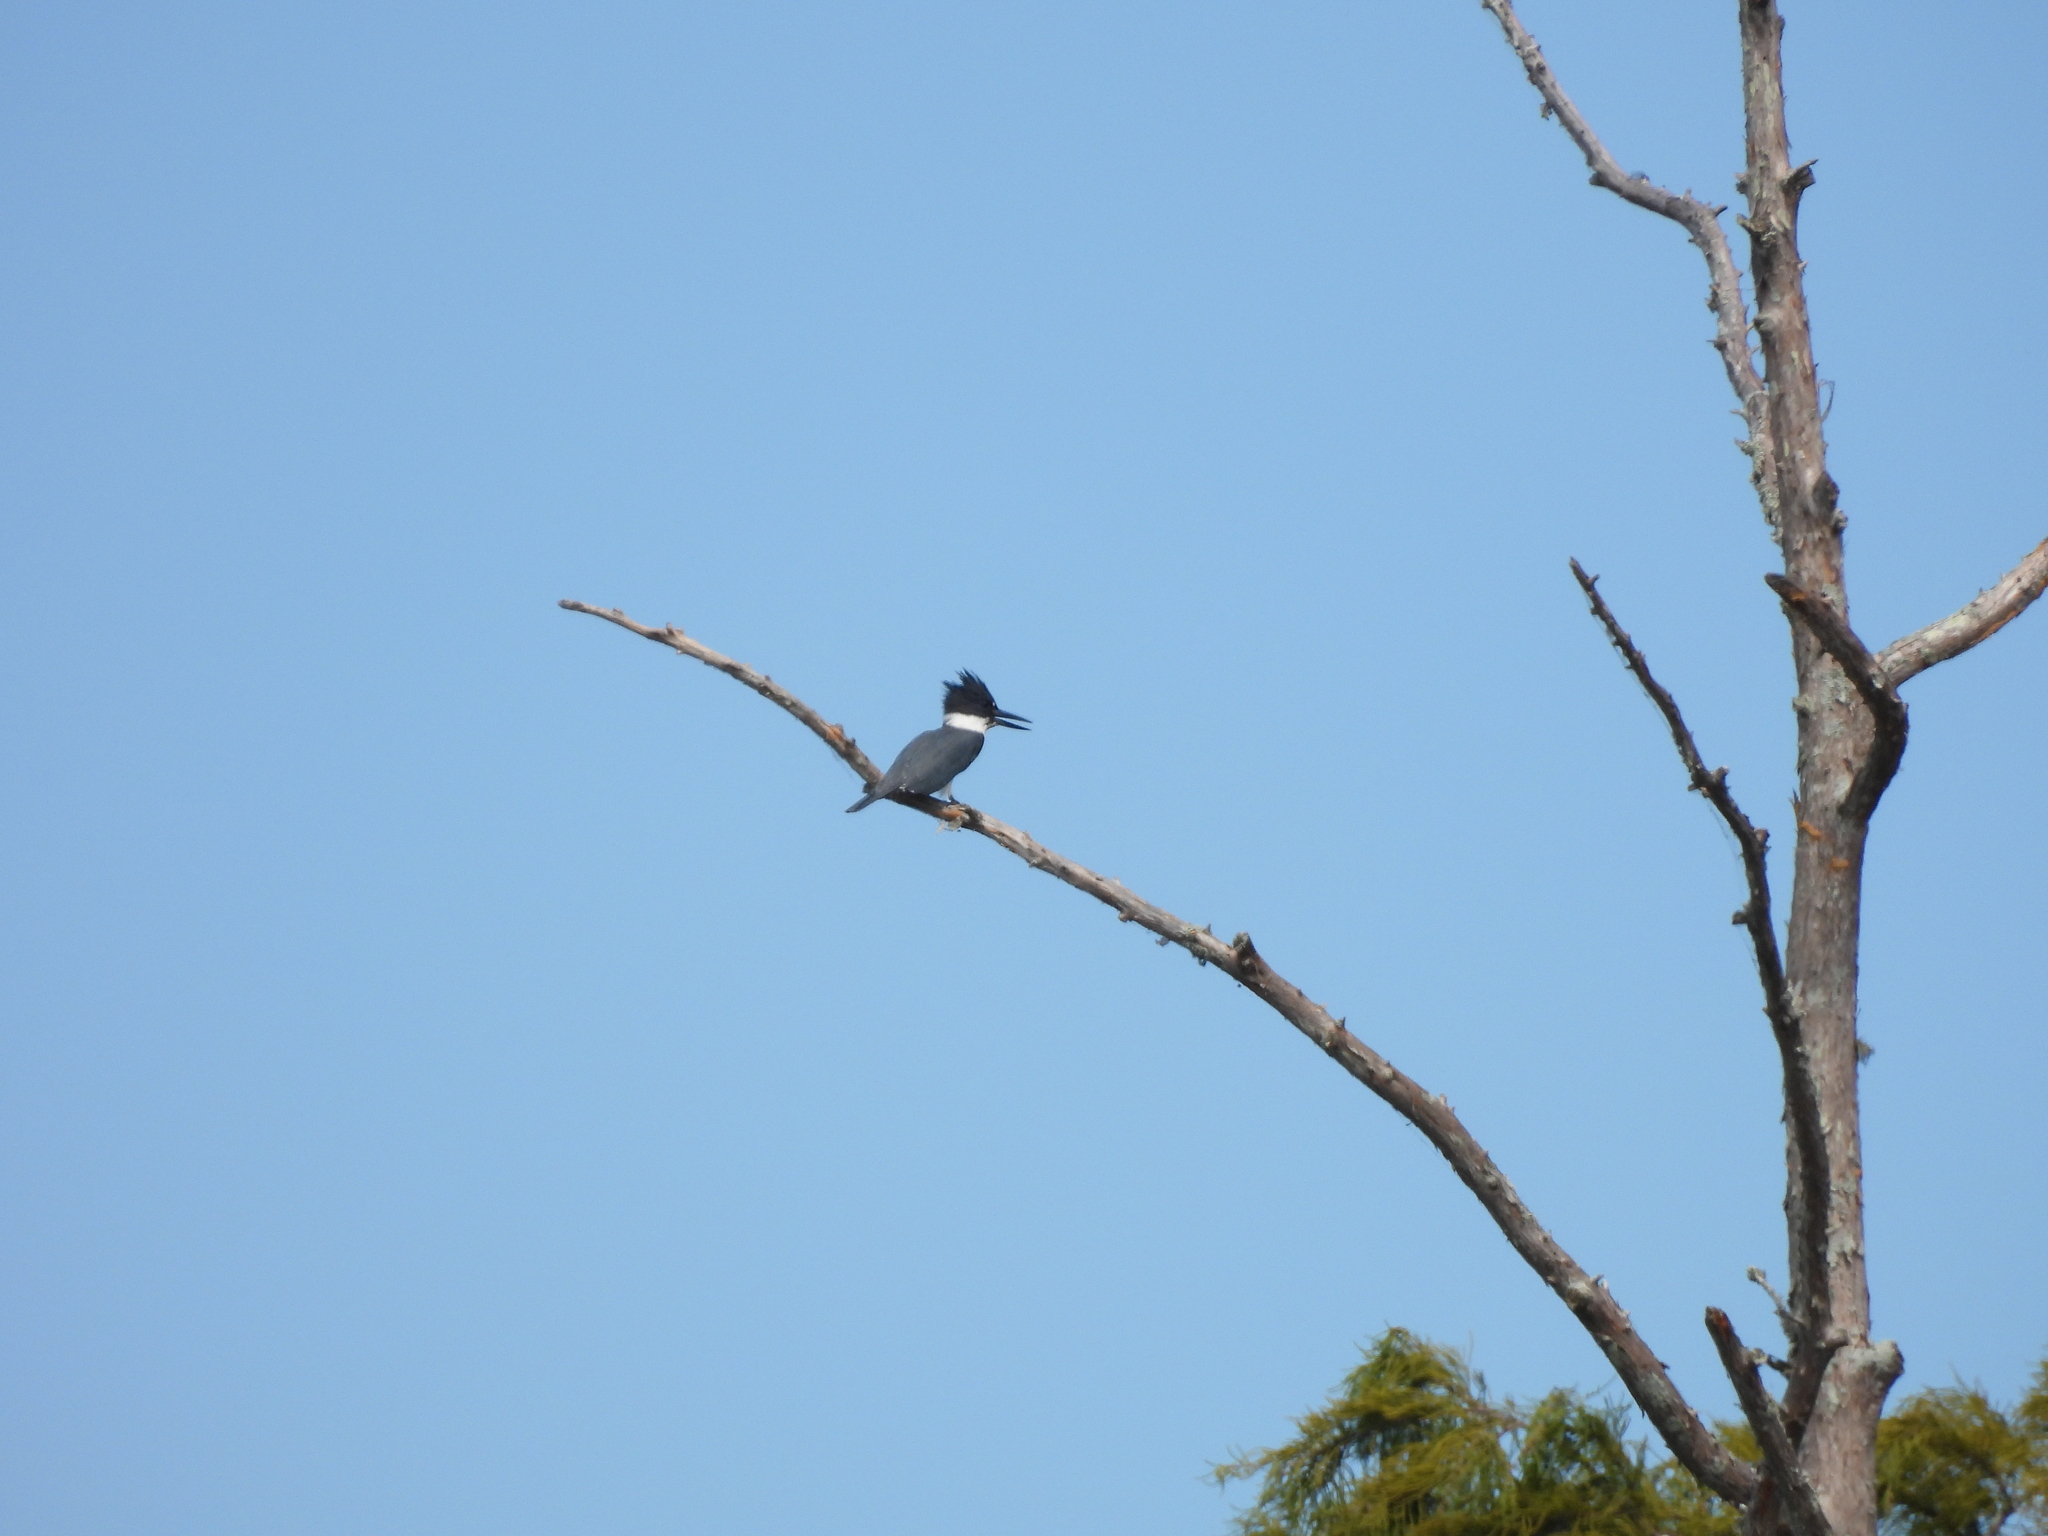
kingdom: Animalia
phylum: Chordata
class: Aves
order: Coraciiformes
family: Alcedinidae
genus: Megaceryle
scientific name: Megaceryle alcyon
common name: Belted kingfisher
